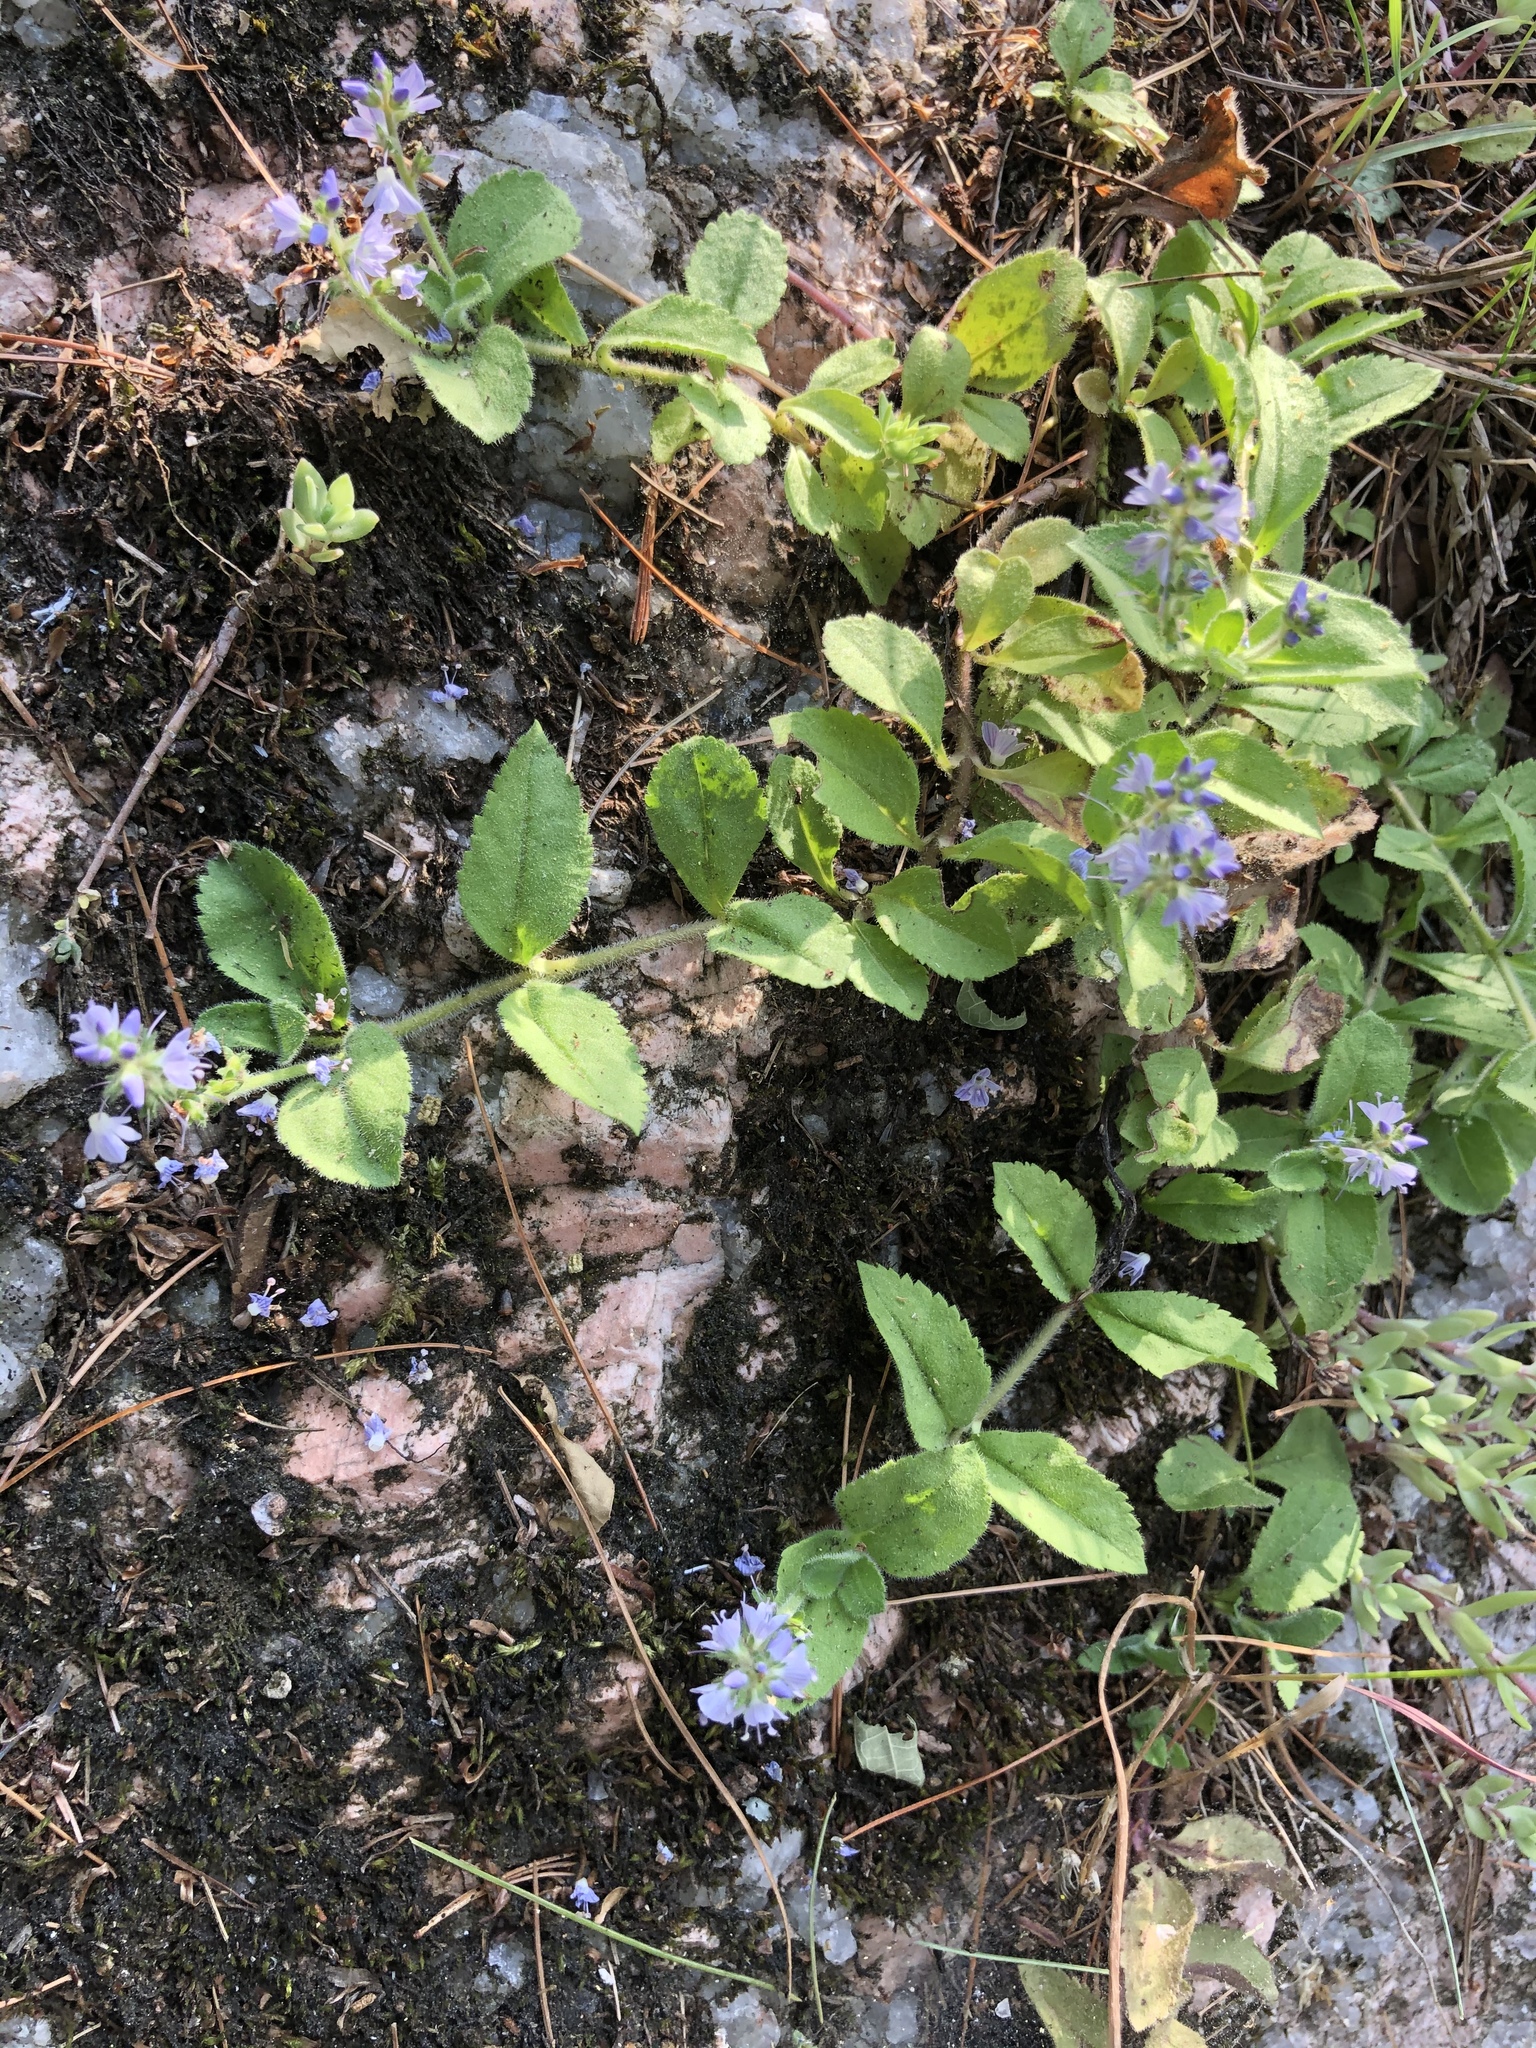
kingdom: Plantae
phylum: Tracheophyta
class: Magnoliopsida
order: Lamiales
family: Plantaginaceae
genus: Veronica
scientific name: Veronica officinalis
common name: Common speedwell
